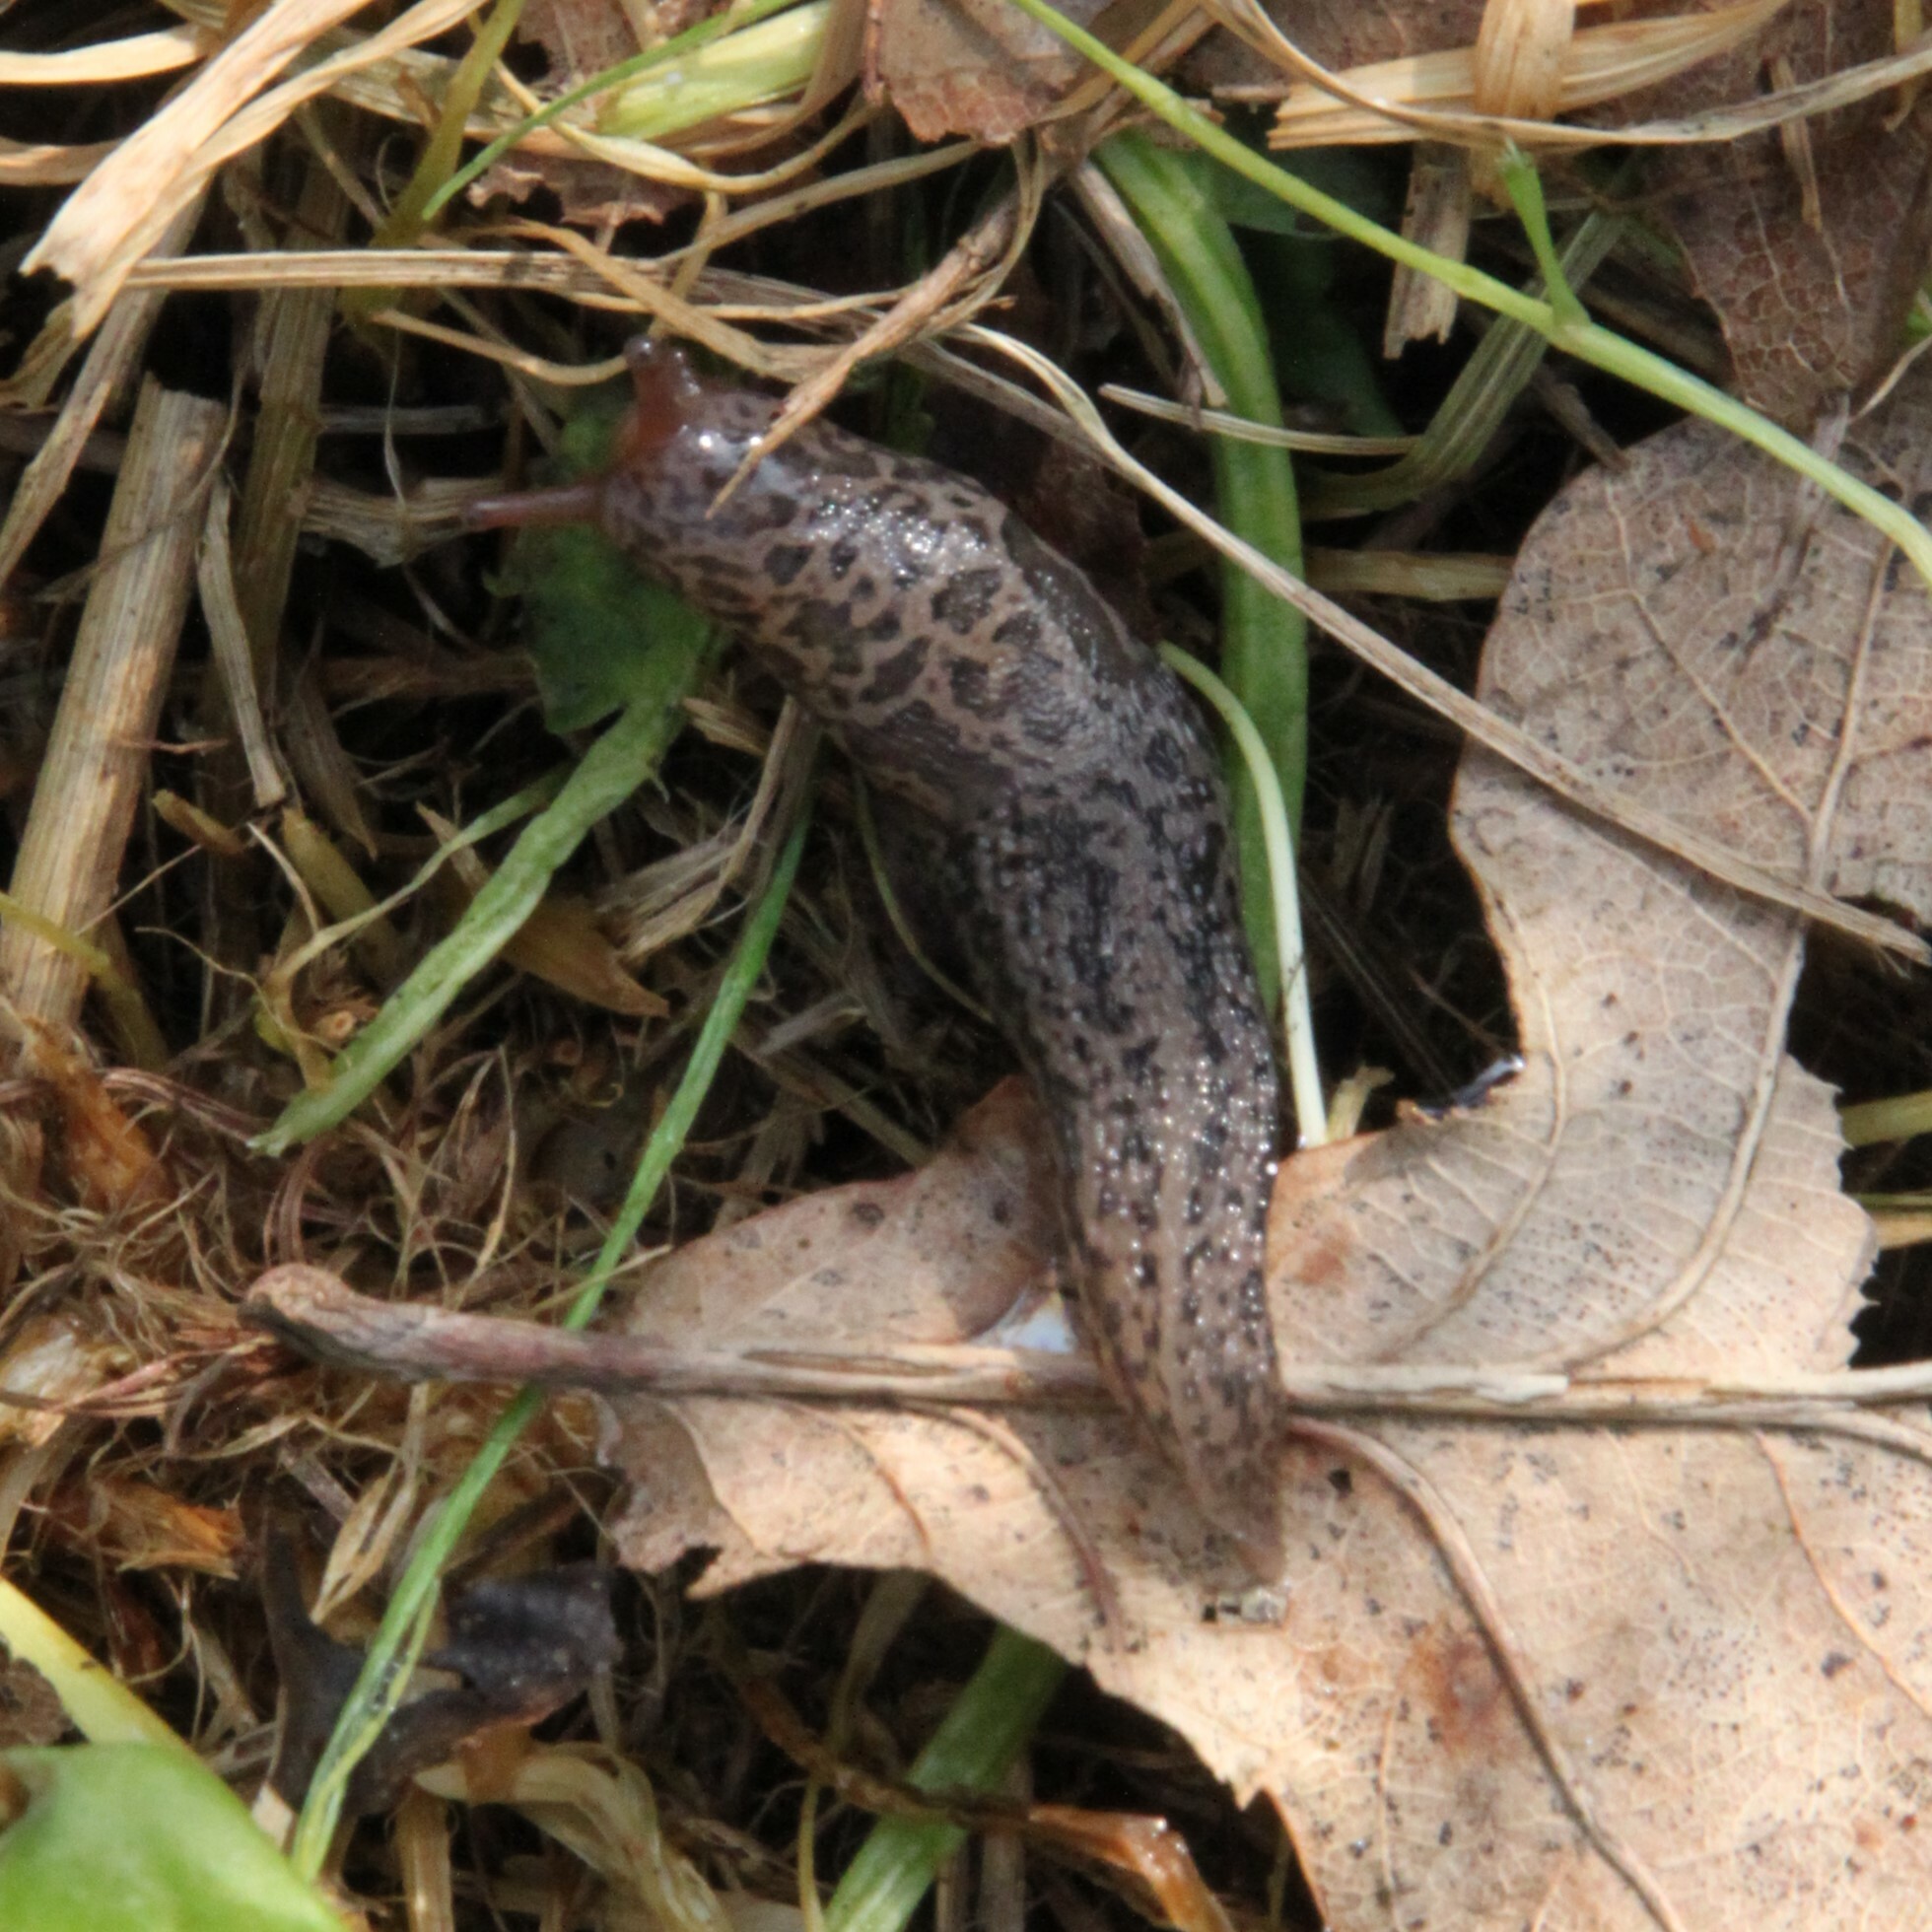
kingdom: Animalia
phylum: Mollusca
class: Gastropoda
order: Stylommatophora
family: Limacidae
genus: Limax
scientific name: Limax maximus
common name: Great grey slug
